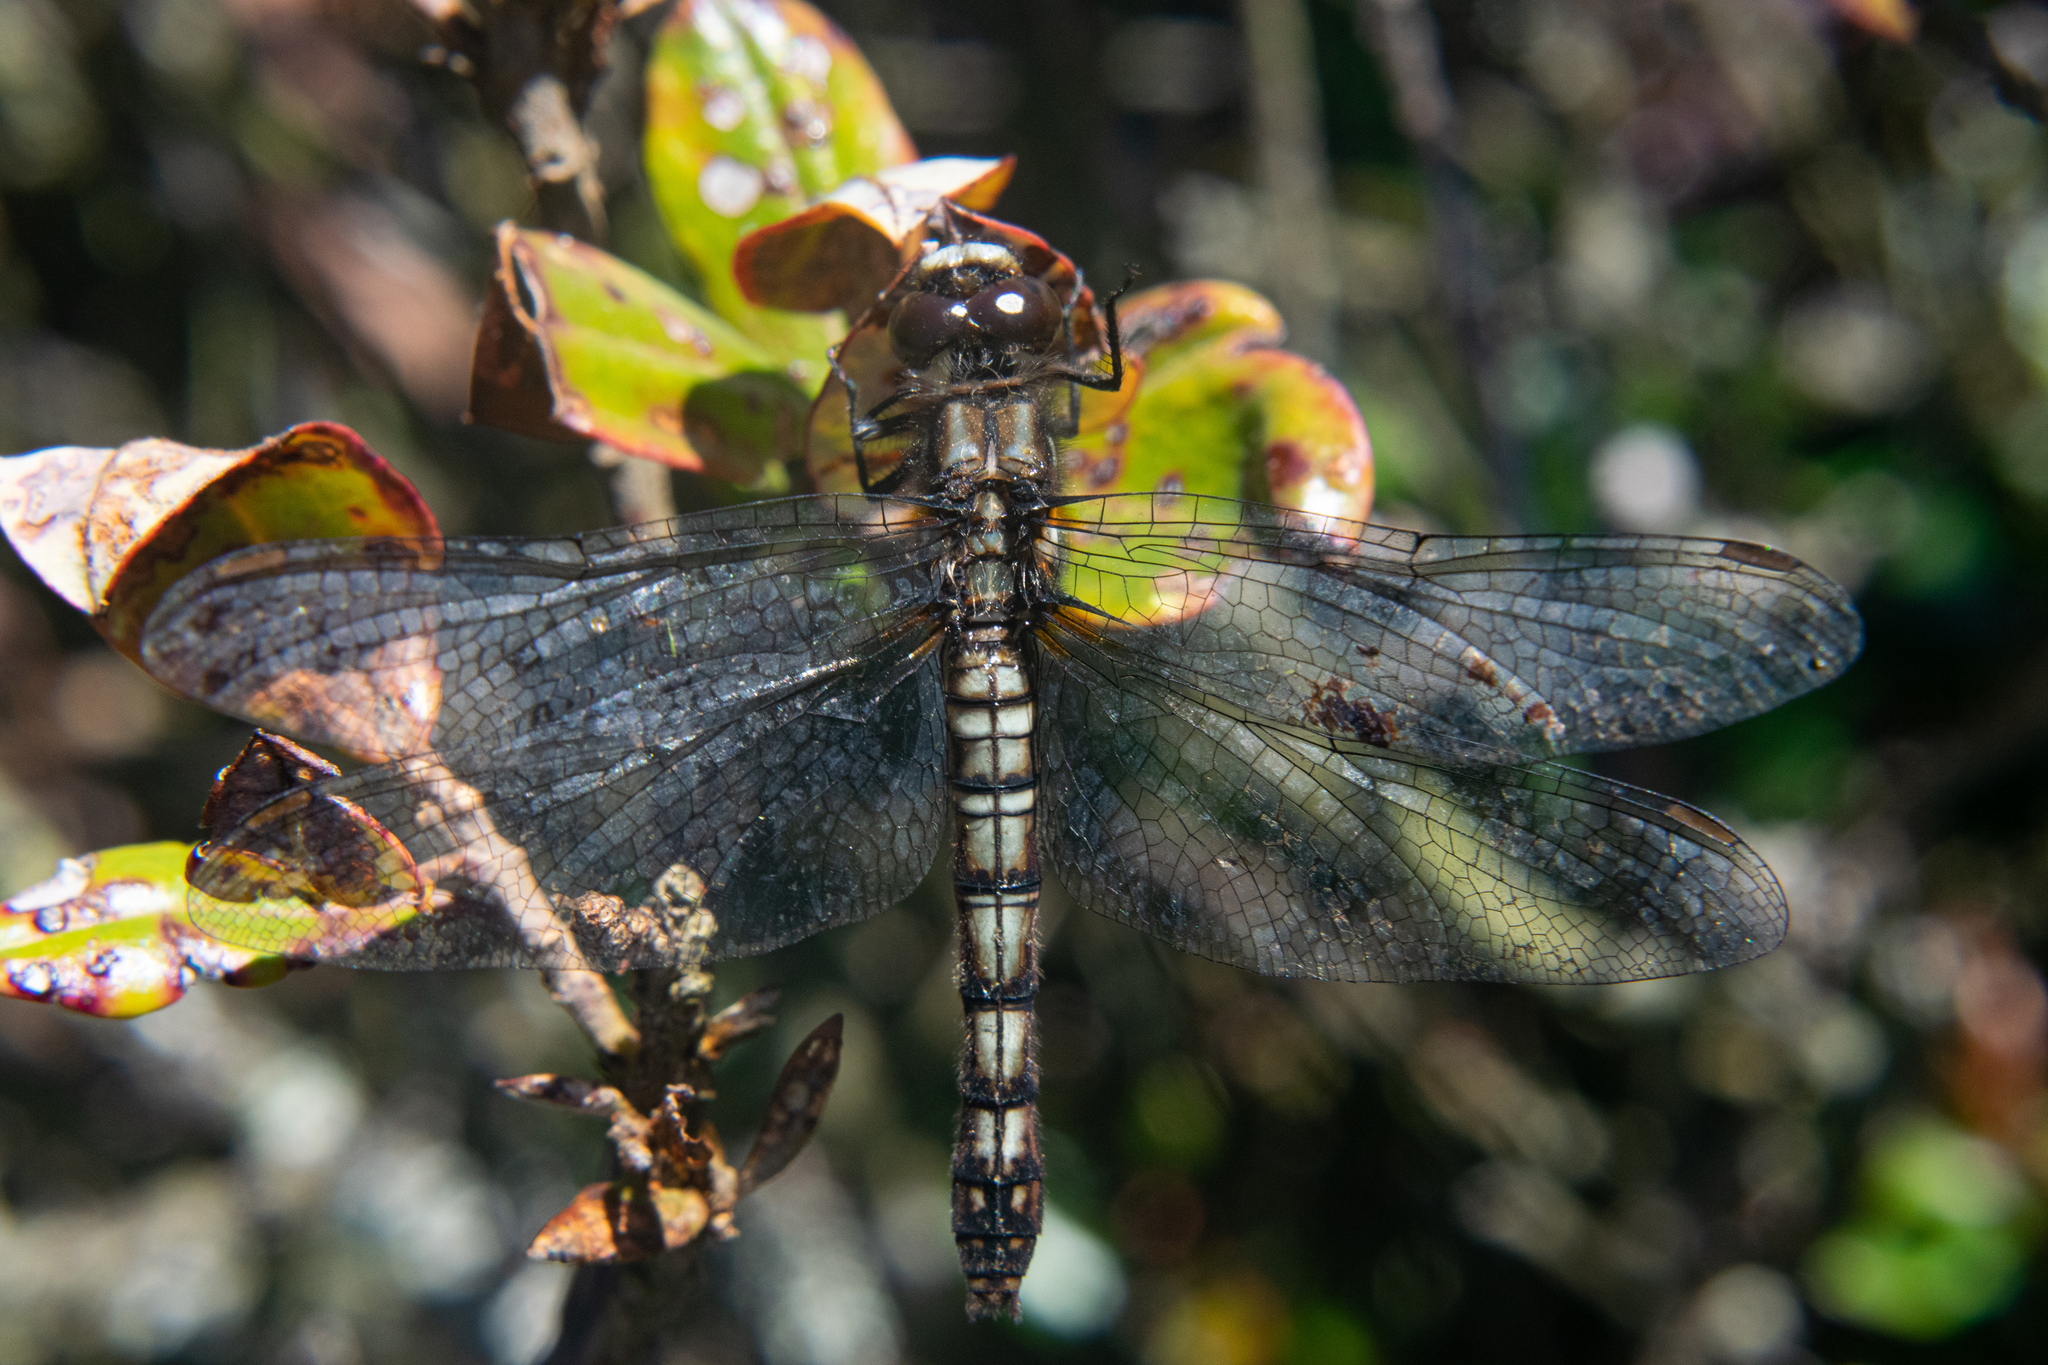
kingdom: Animalia
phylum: Arthropoda
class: Insecta
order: Odonata
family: Libellulidae
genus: Sympetrum
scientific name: Sympetrum paramo
